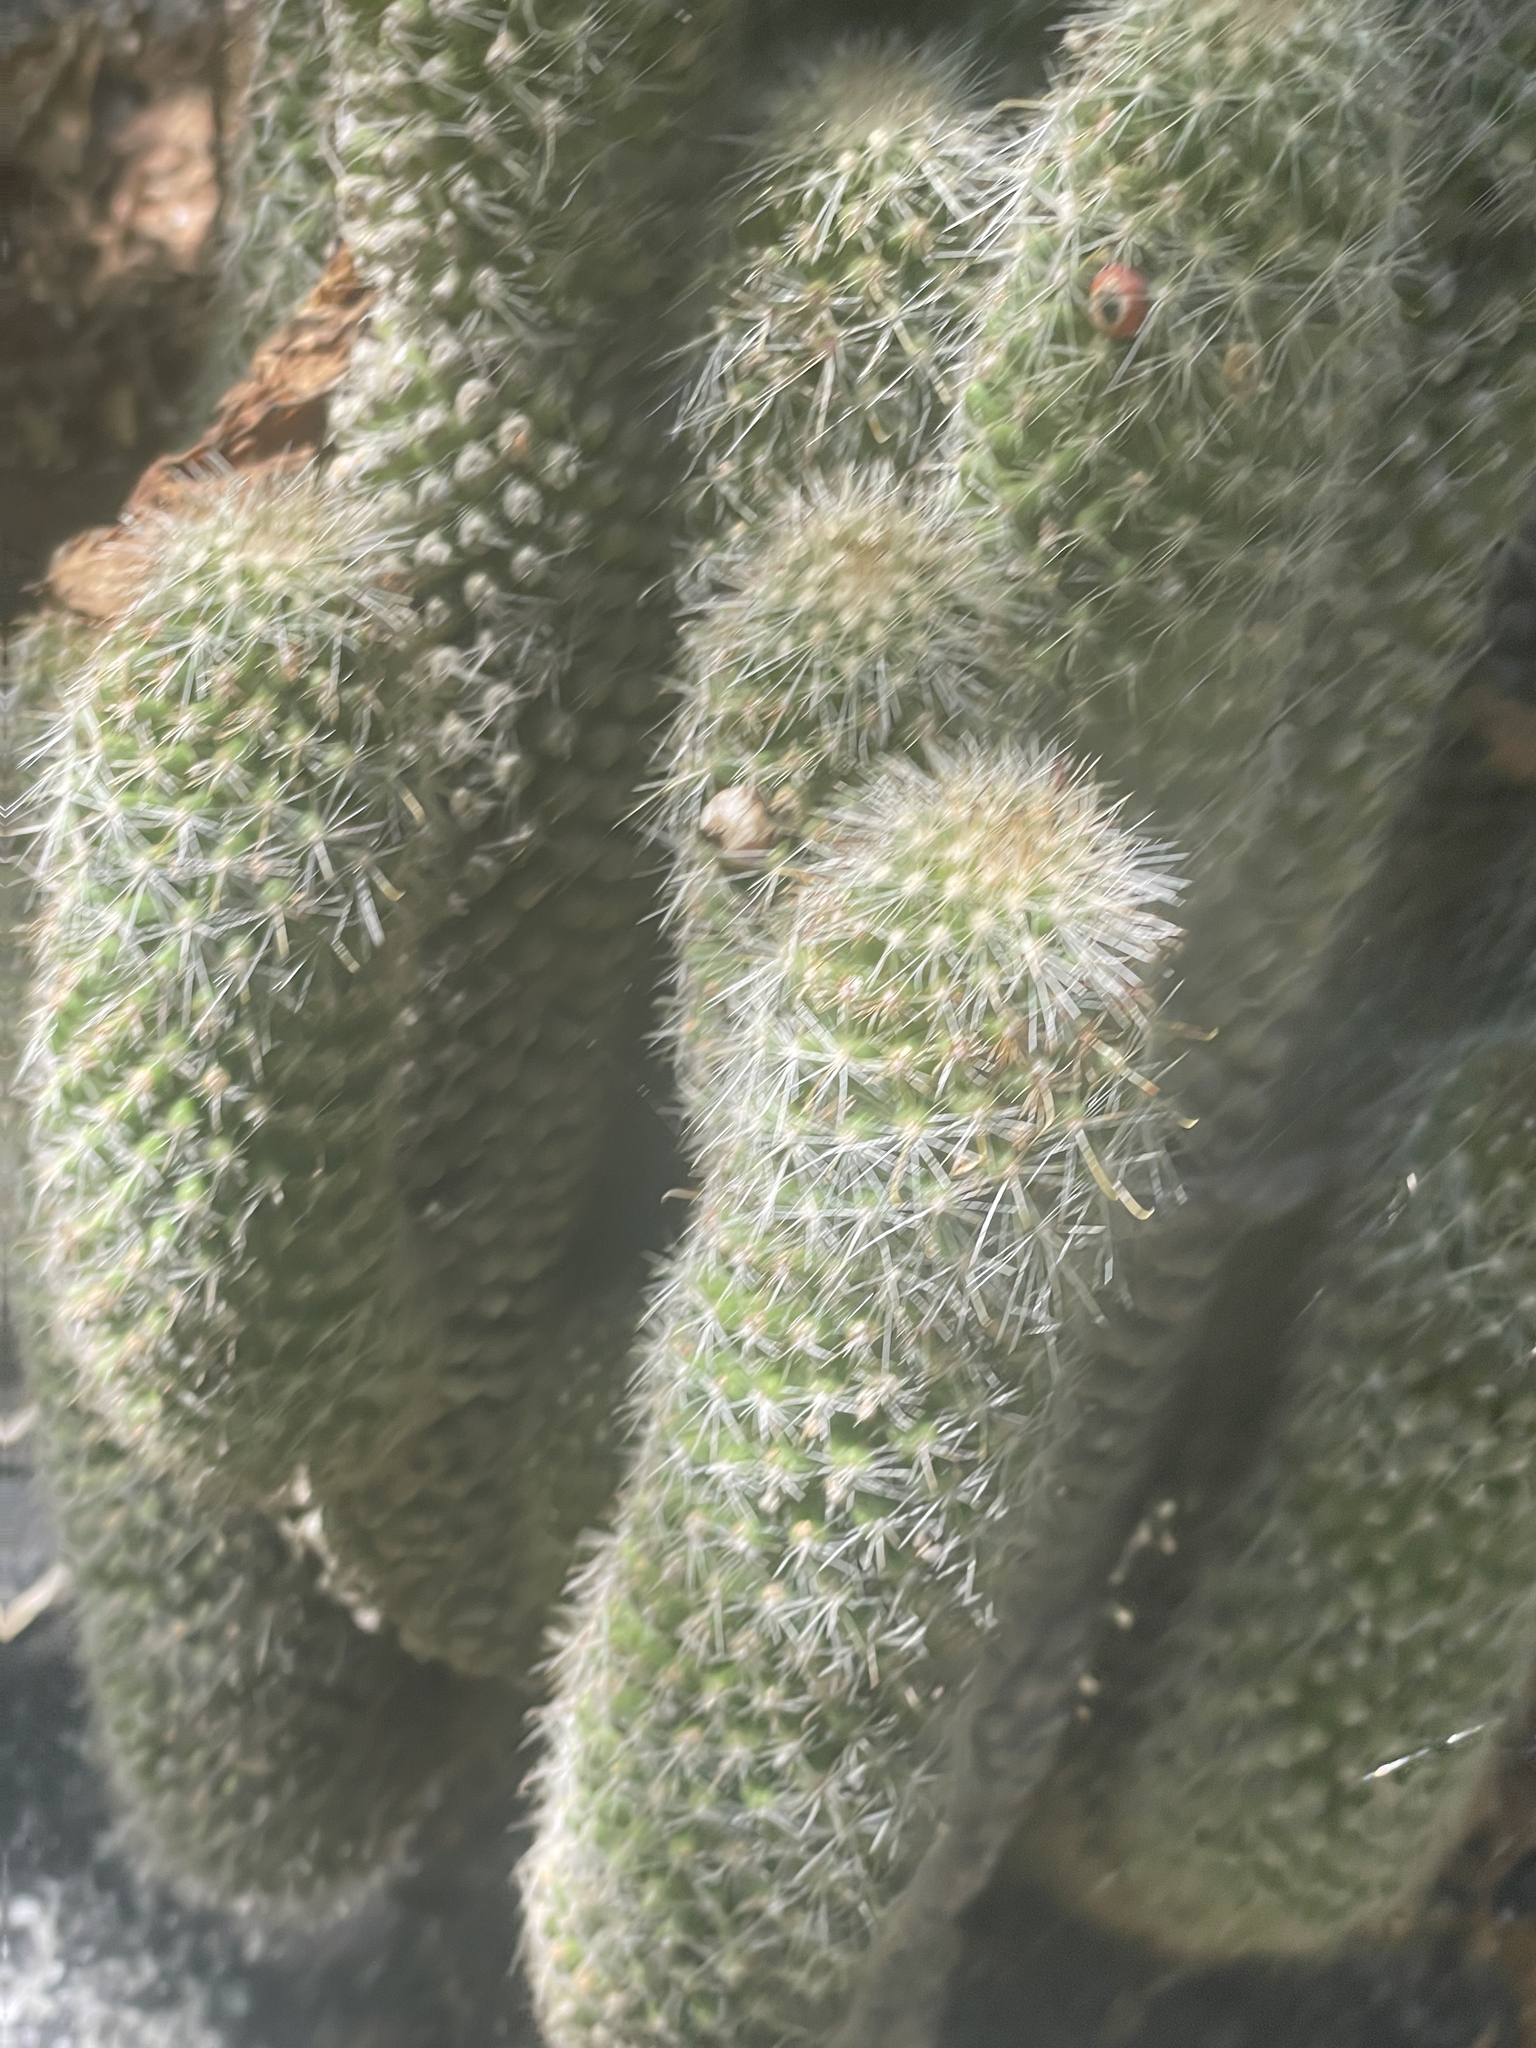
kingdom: Plantae
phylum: Tracheophyta
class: Magnoliopsida
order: Caryophyllales
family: Cactaceae
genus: Cochemiea
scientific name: Cochemiea phitauiana
